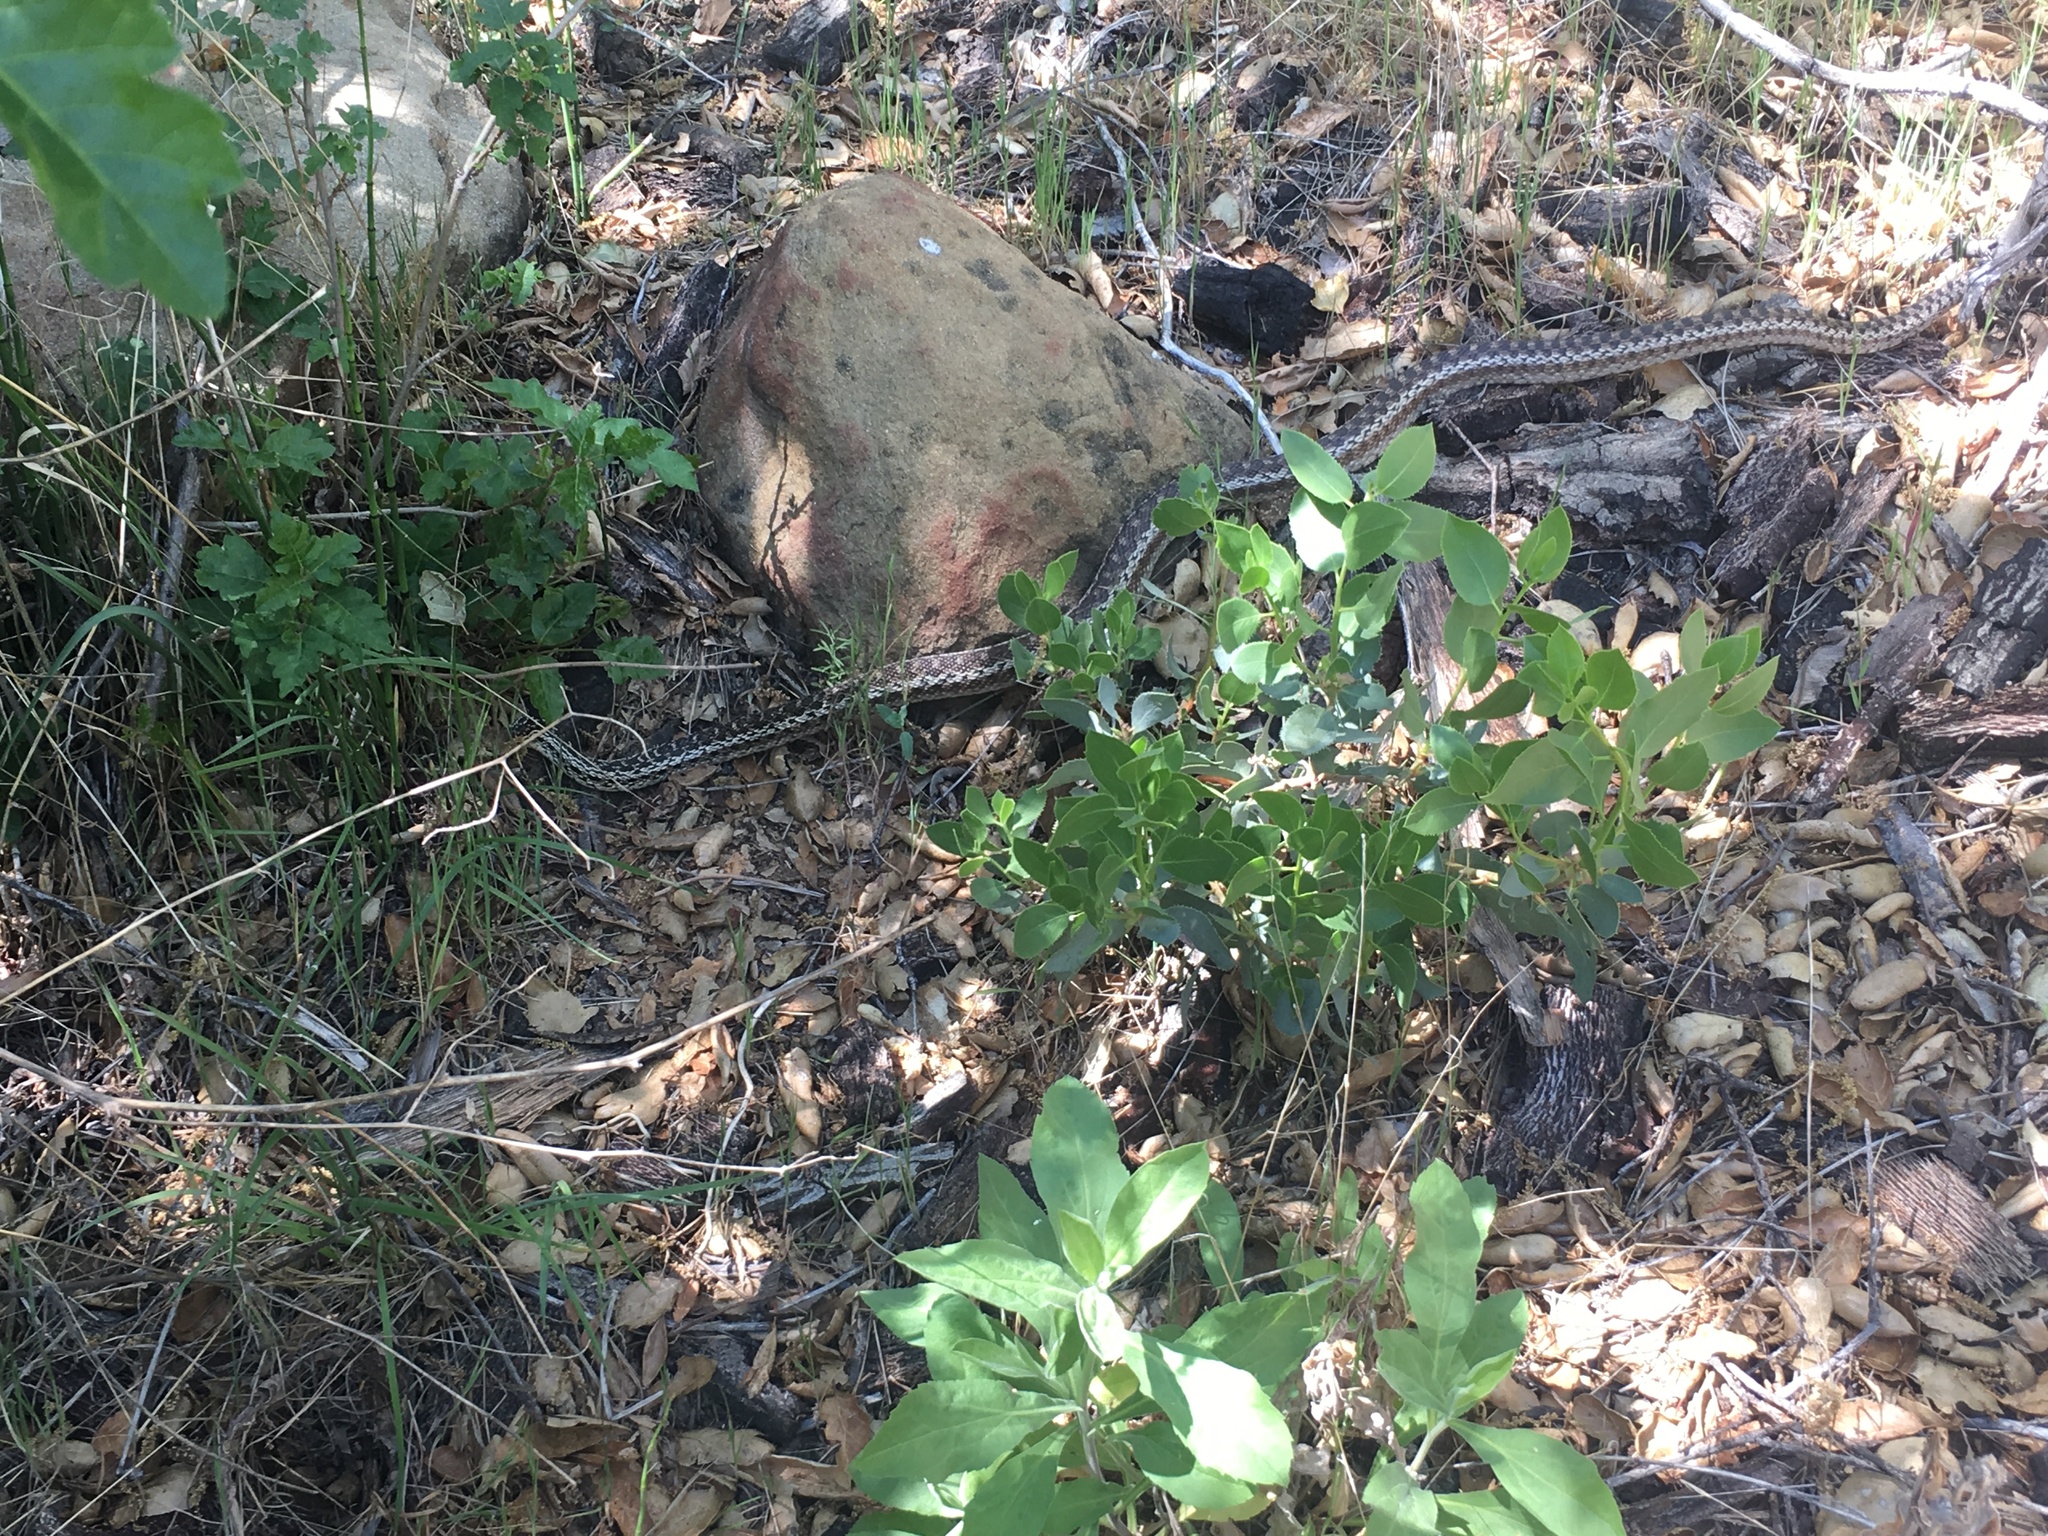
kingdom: Animalia
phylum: Chordata
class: Squamata
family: Colubridae
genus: Pituophis
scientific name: Pituophis catenifer
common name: Gopher snake
